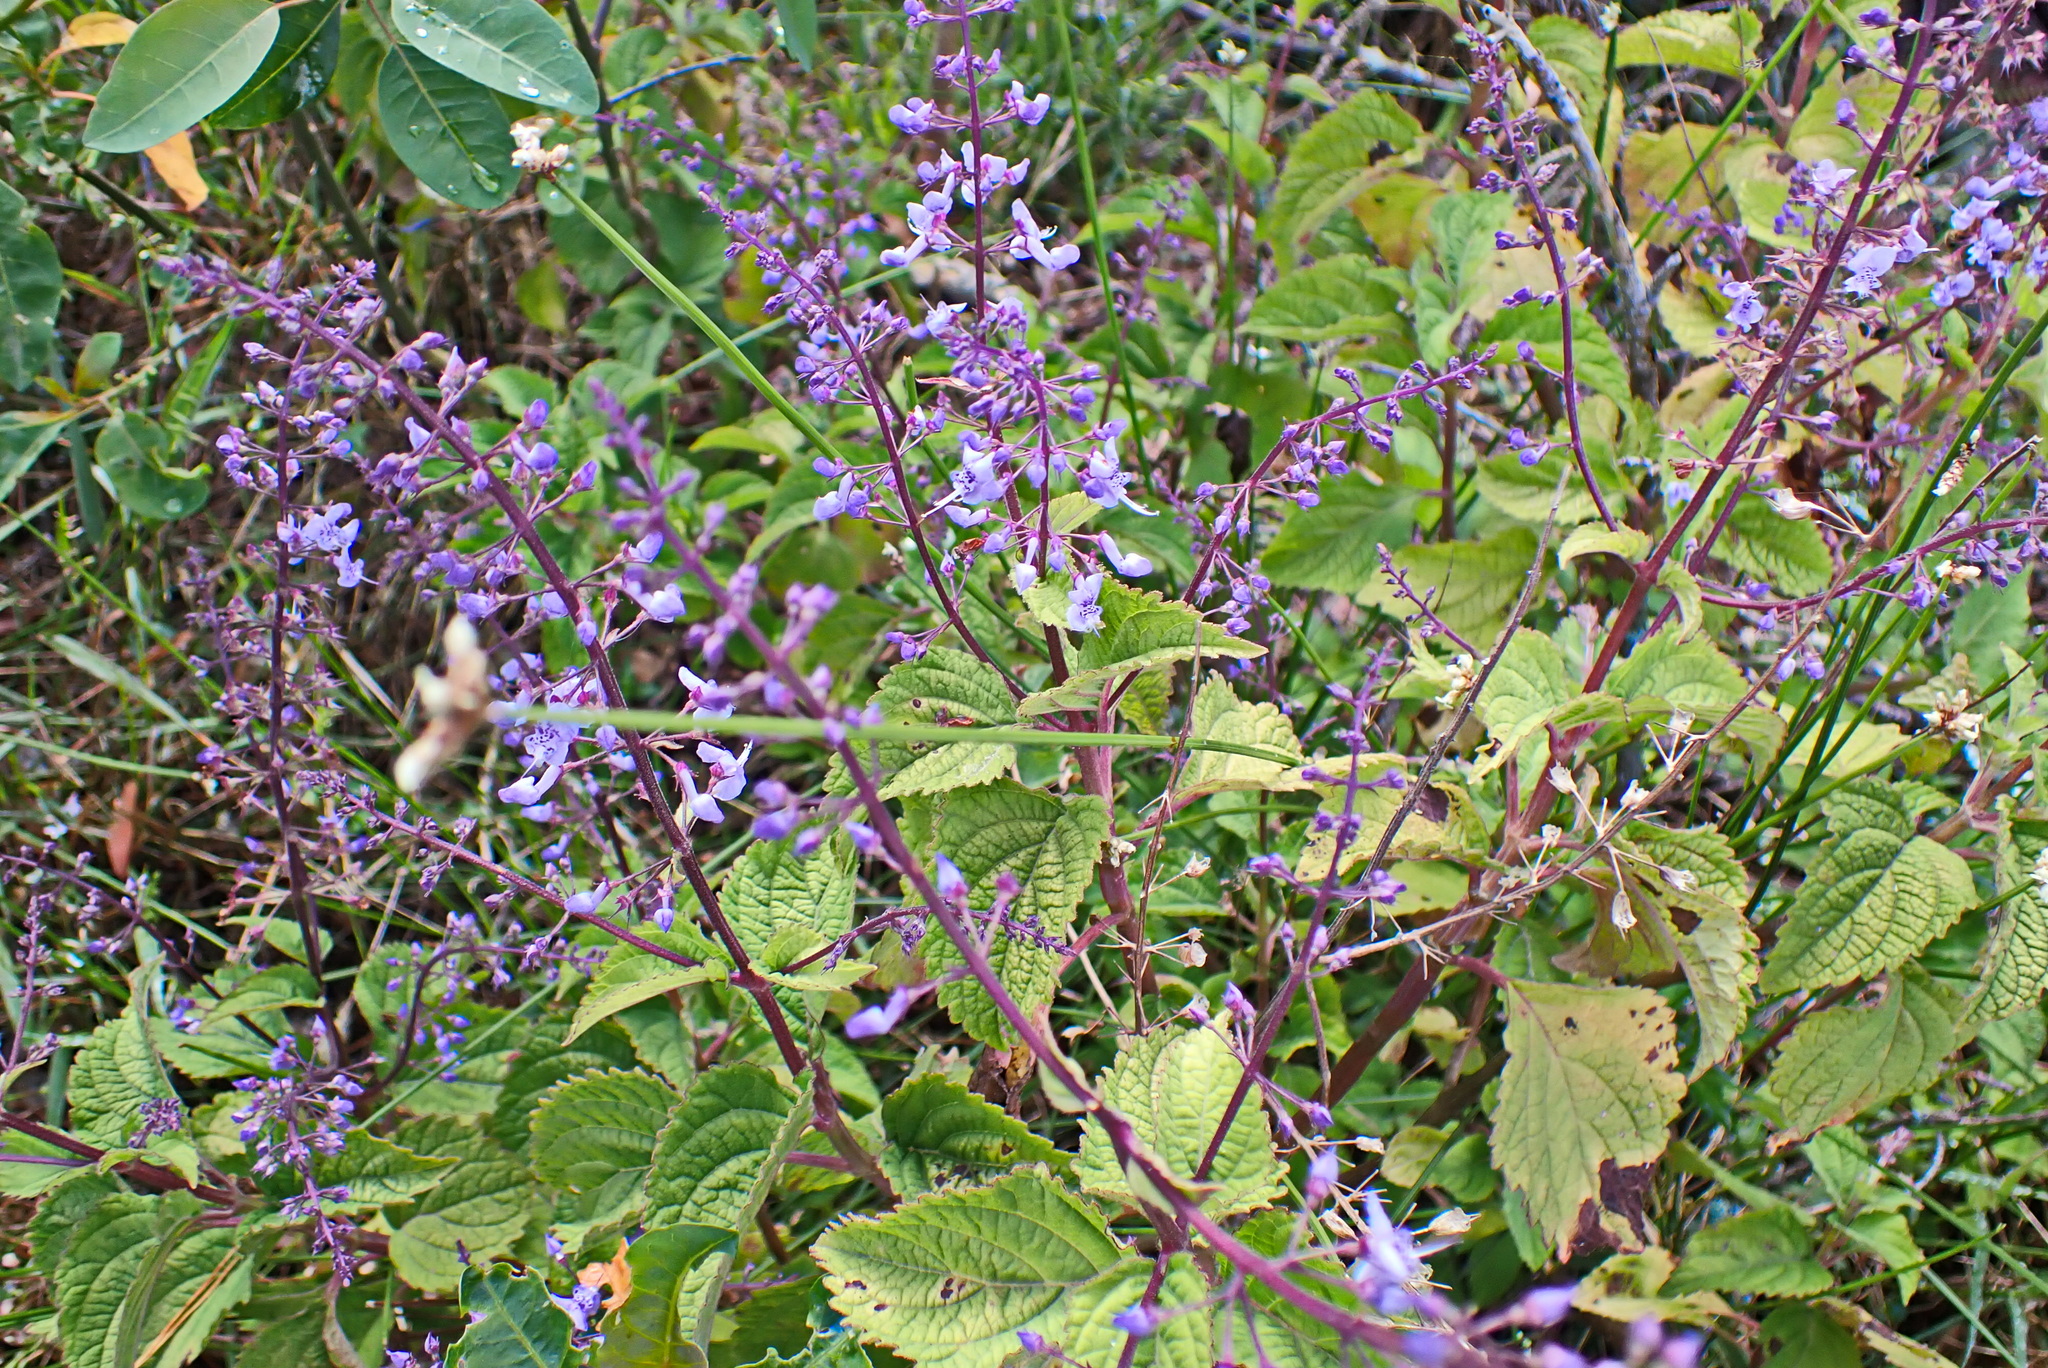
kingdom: Plantae
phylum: Tracheophyta
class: Magnoliopsida
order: Lamiales
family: Lamiaceae
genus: Plectranthus
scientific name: Plectranthus fruticosus
